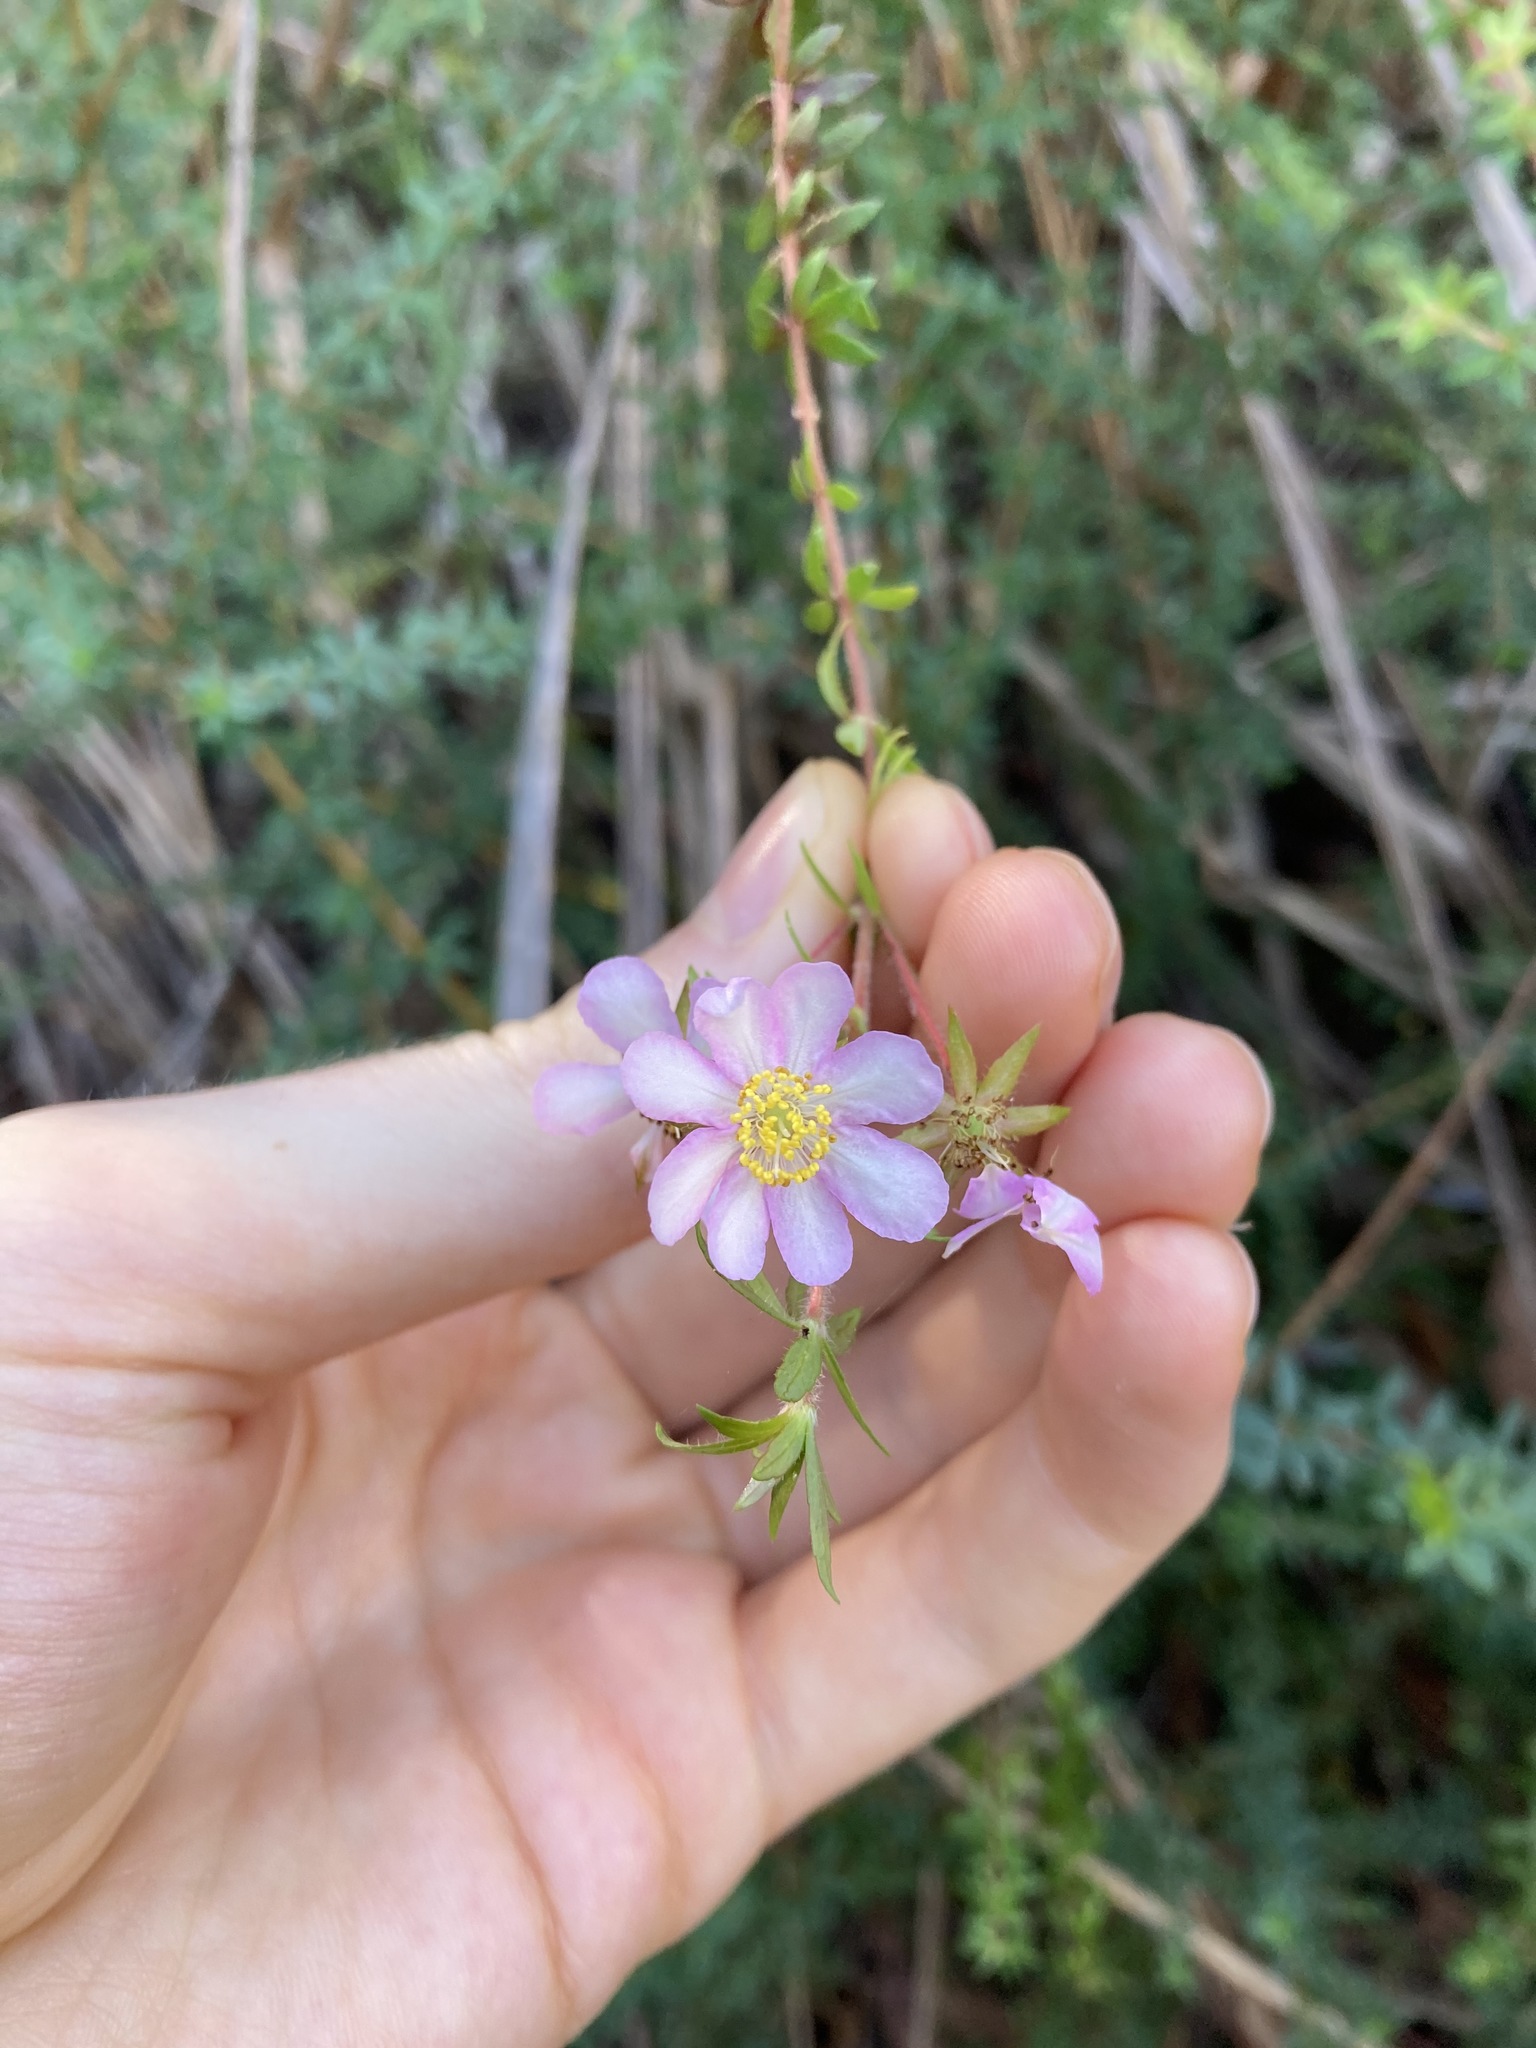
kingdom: Plantae
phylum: Tracheophyta
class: Magnoliopsida
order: Oxalidales
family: Cunoniaceae
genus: Bauera
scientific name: Bauera rubioides
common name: River-rose
